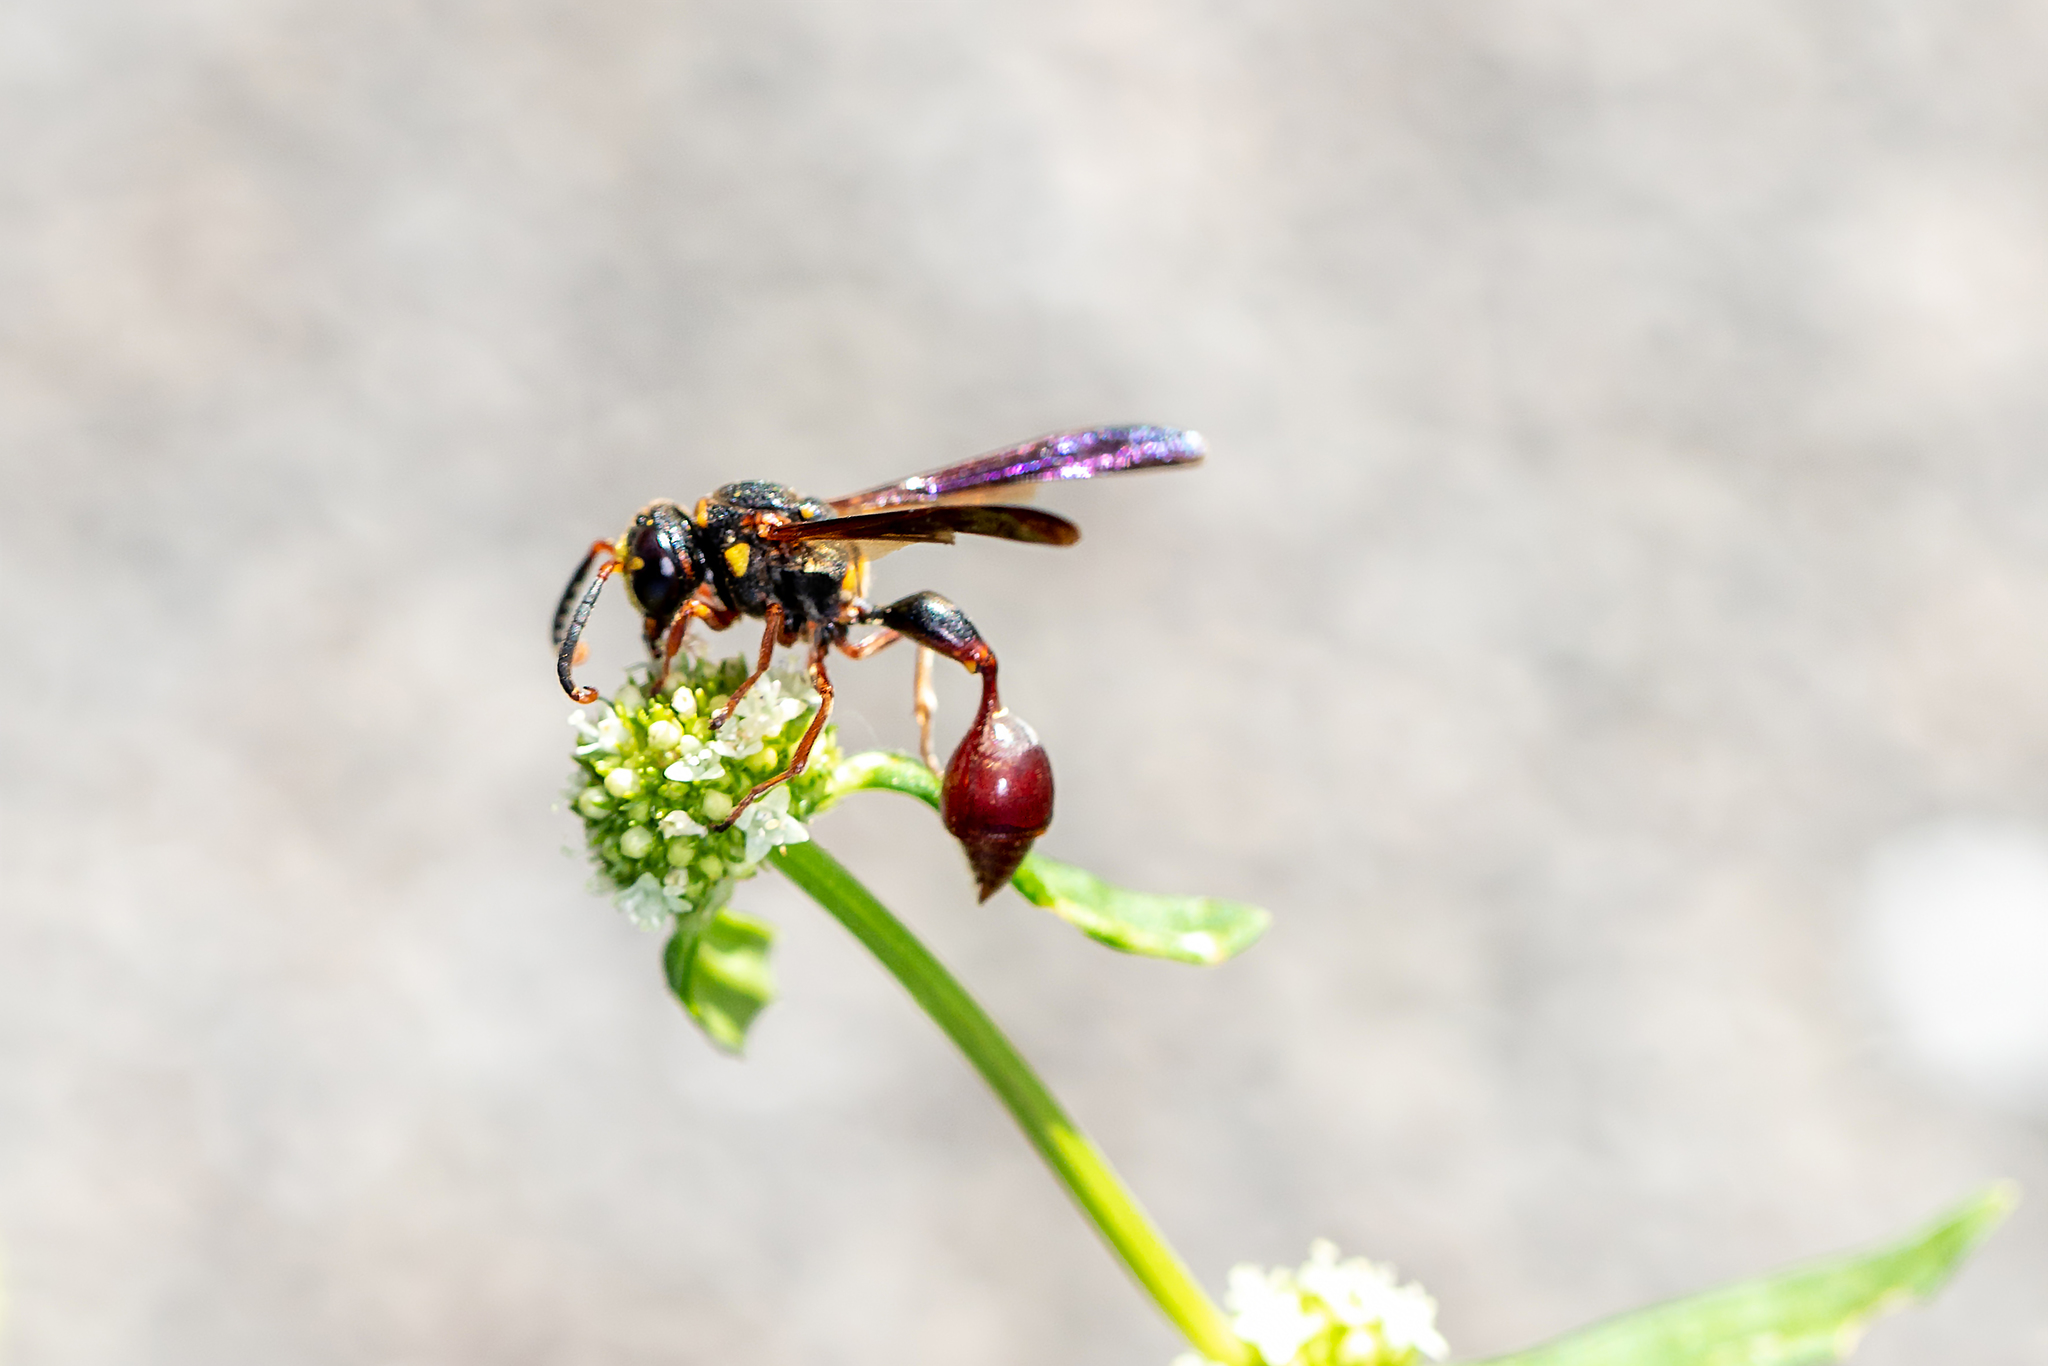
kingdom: Animalia
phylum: Arthropoda
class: Insecta
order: Hymenoptera
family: Eumenidae
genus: Zethus
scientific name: Zethus slossonae
